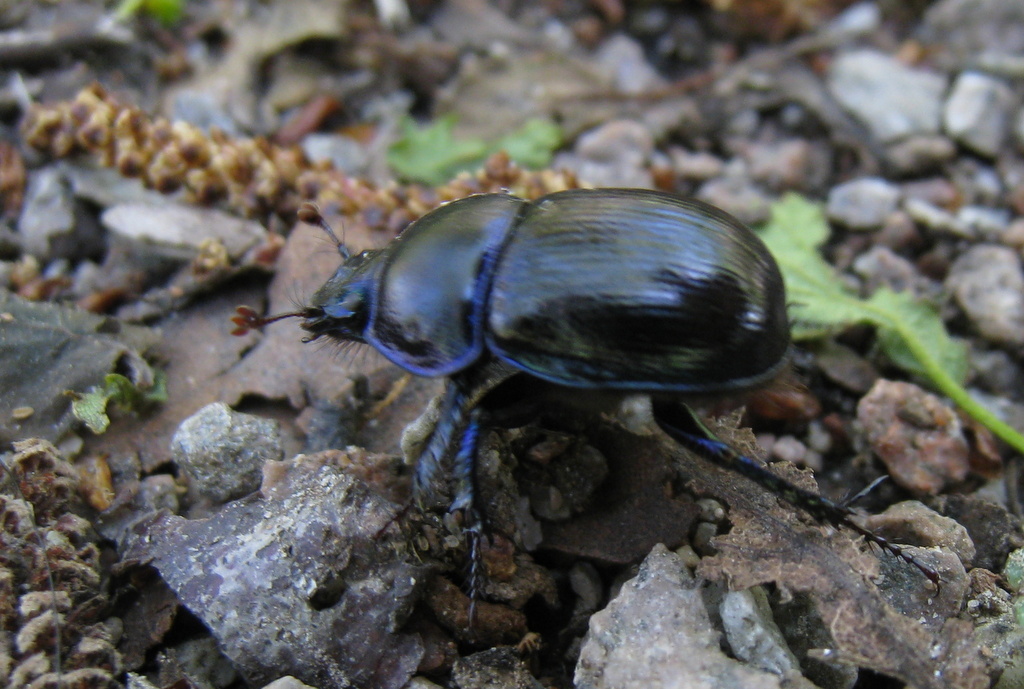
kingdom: Animalia
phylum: Arthropoda
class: Insecta
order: Coleoptera
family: Geotrupidae
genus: Anoplotrupes
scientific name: Anoplotrupes stercorosus
